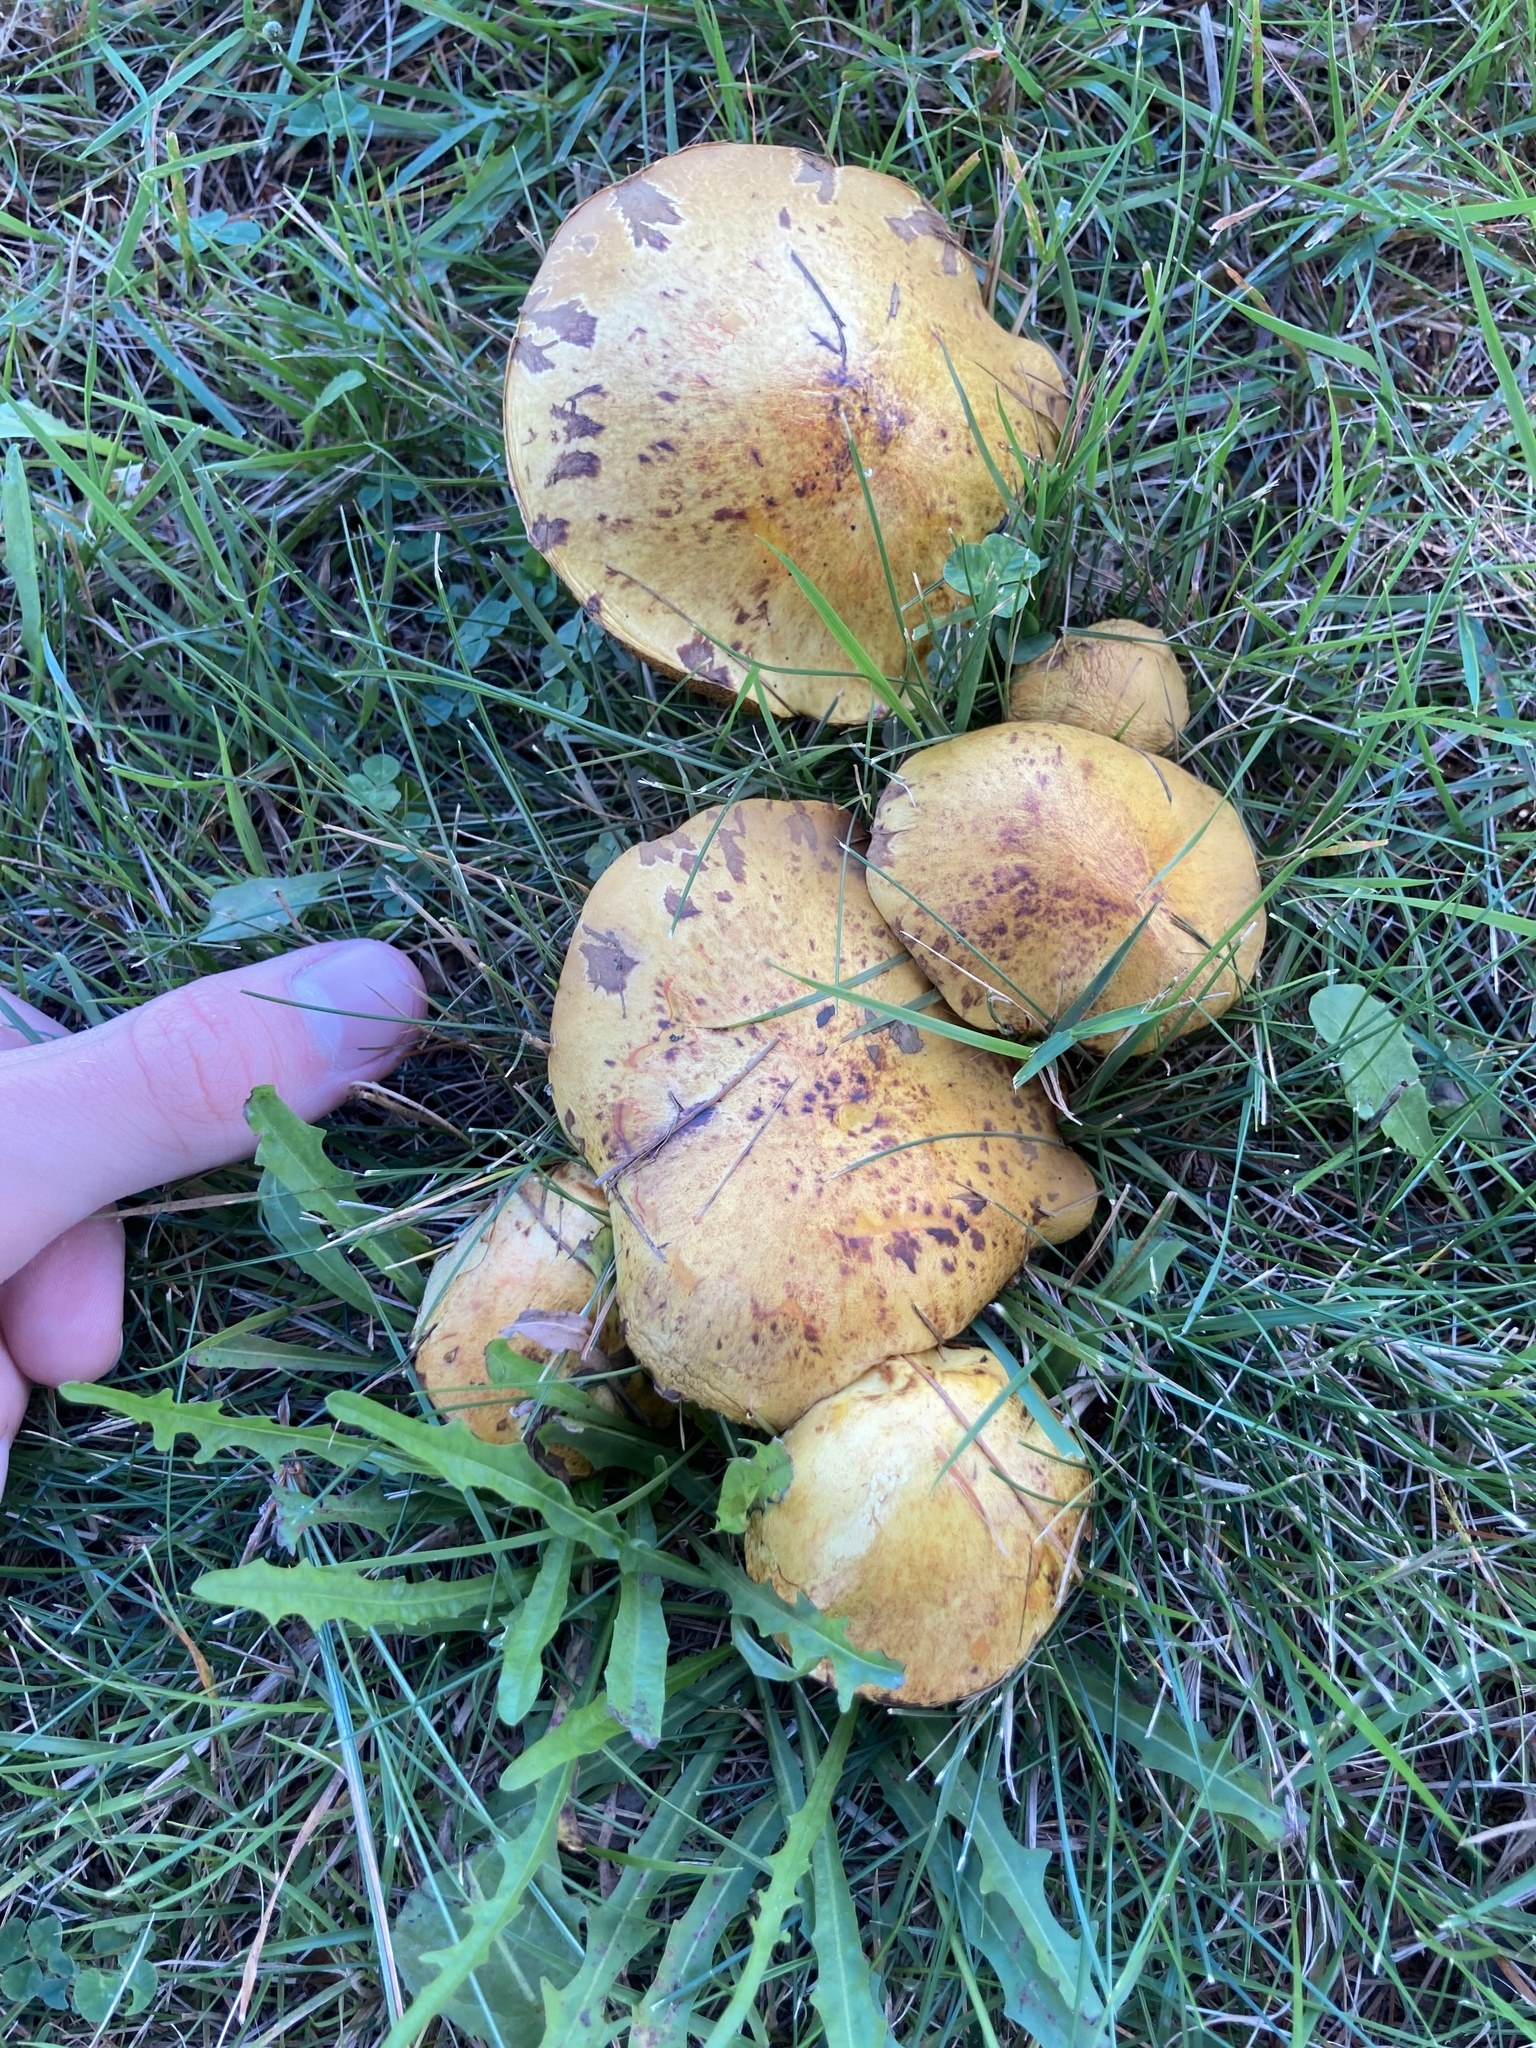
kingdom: Fungi
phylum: Basidiomycota
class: Agaricomycetes
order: Boletales
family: Suillaceae
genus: Suillus
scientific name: Suillus americanus
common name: Chicken fat mushroom
